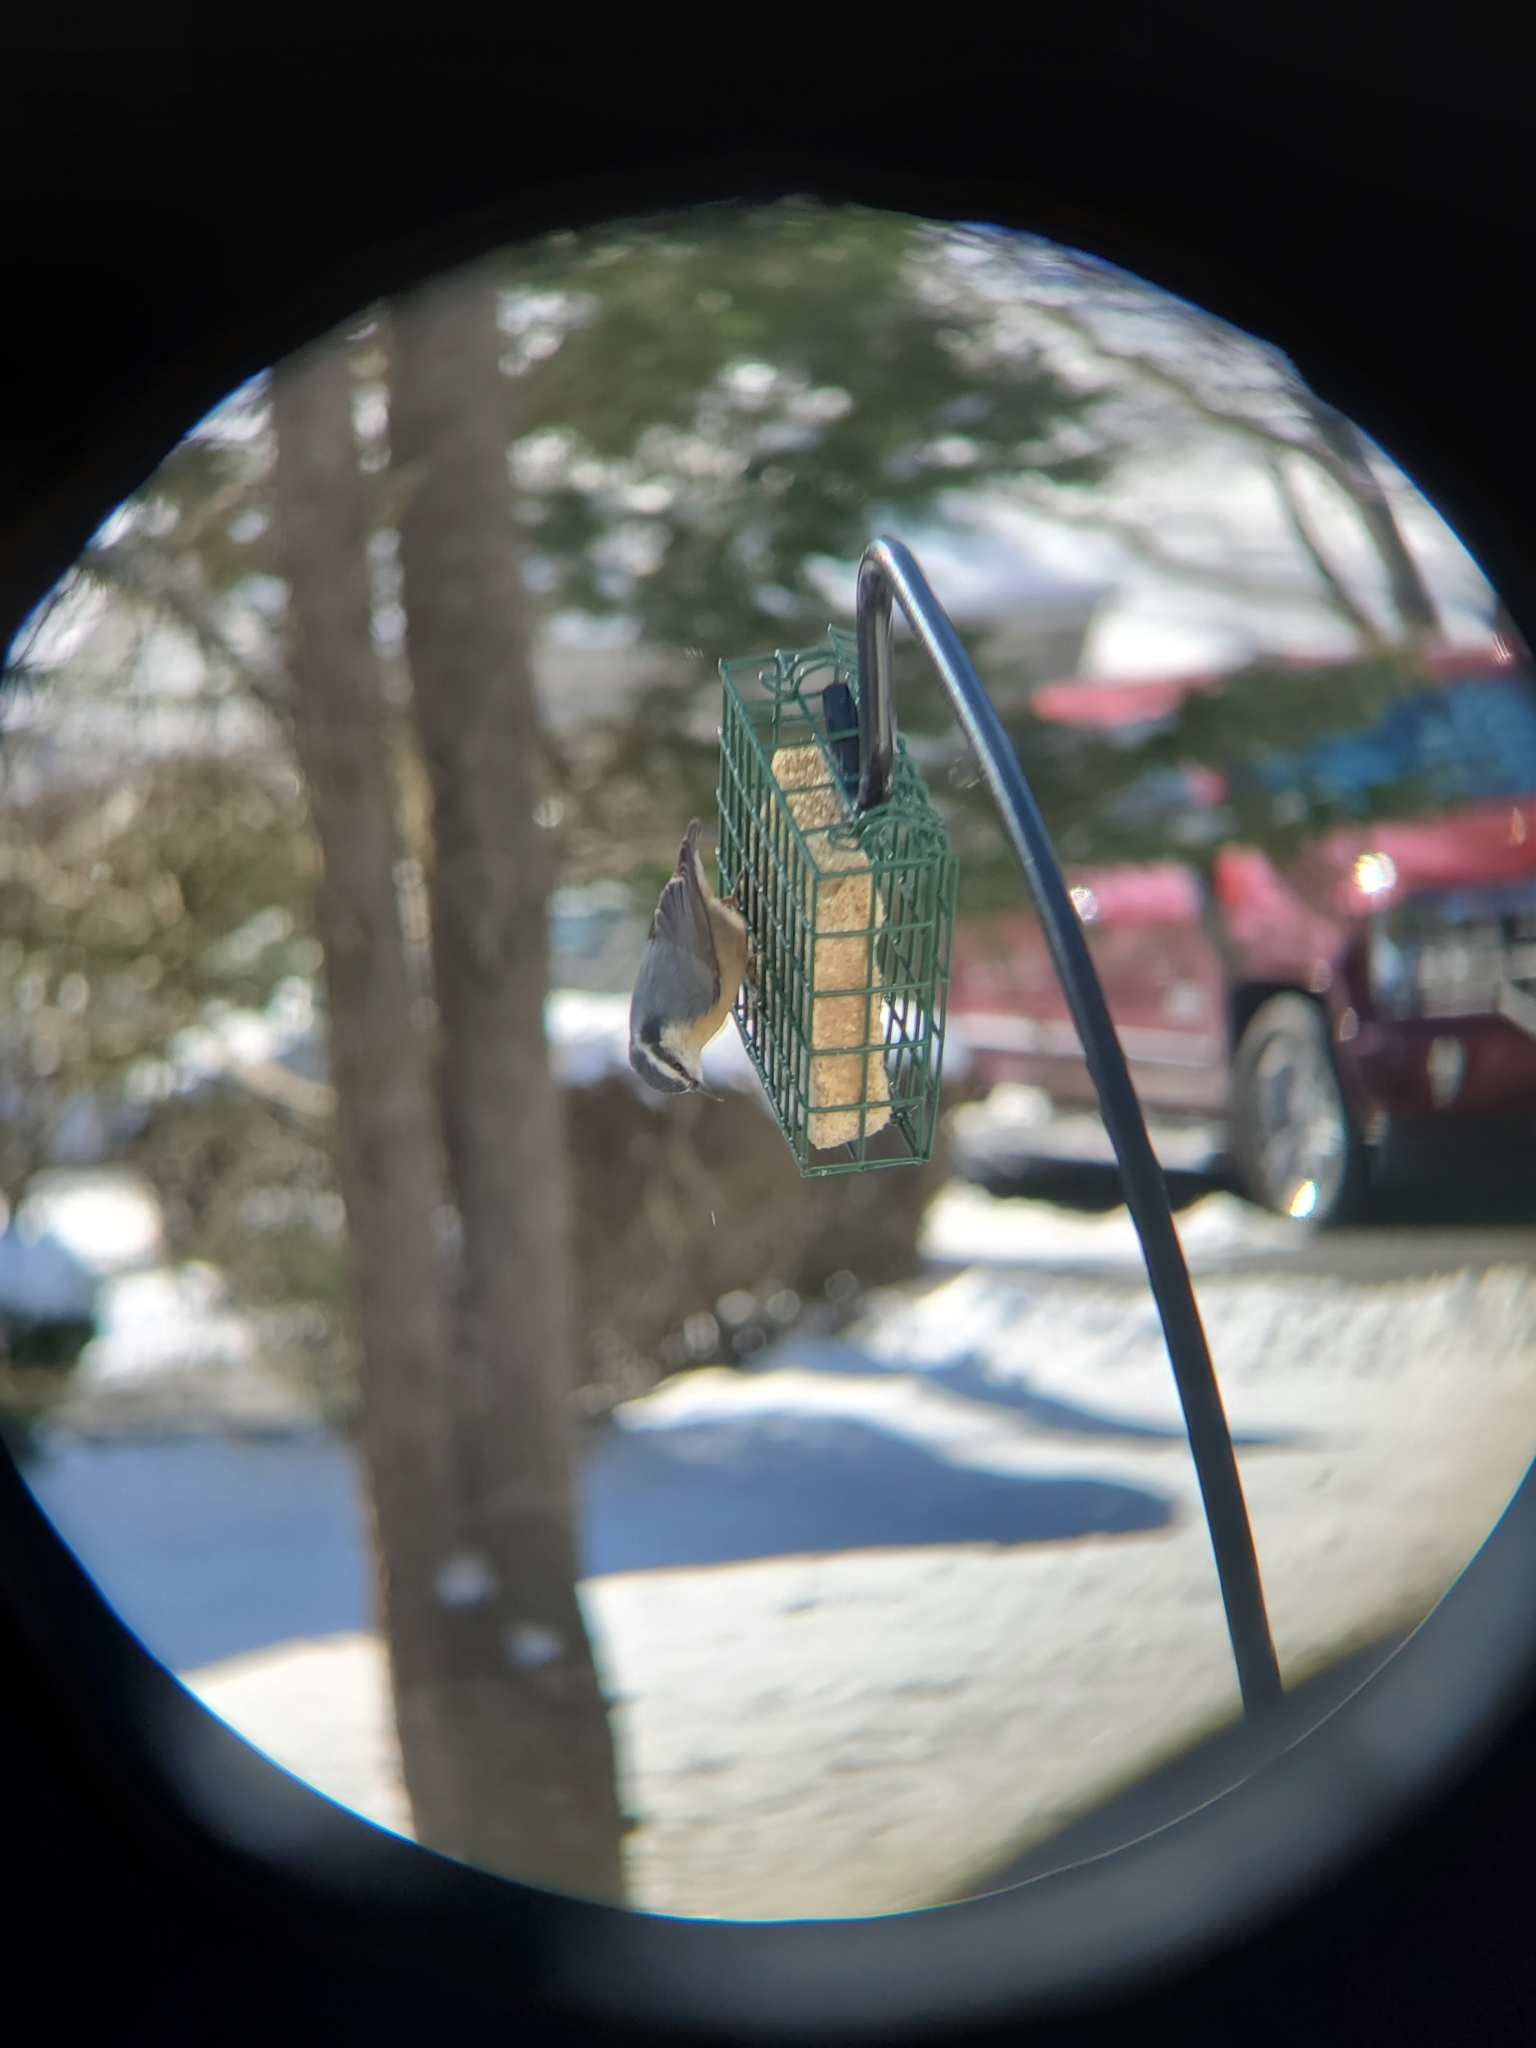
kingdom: Animalia
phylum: Chordata
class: Aves
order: Passeriformes
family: Sittidae
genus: Sitta
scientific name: Sitta canadensis
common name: Red-breasted nuthatch
